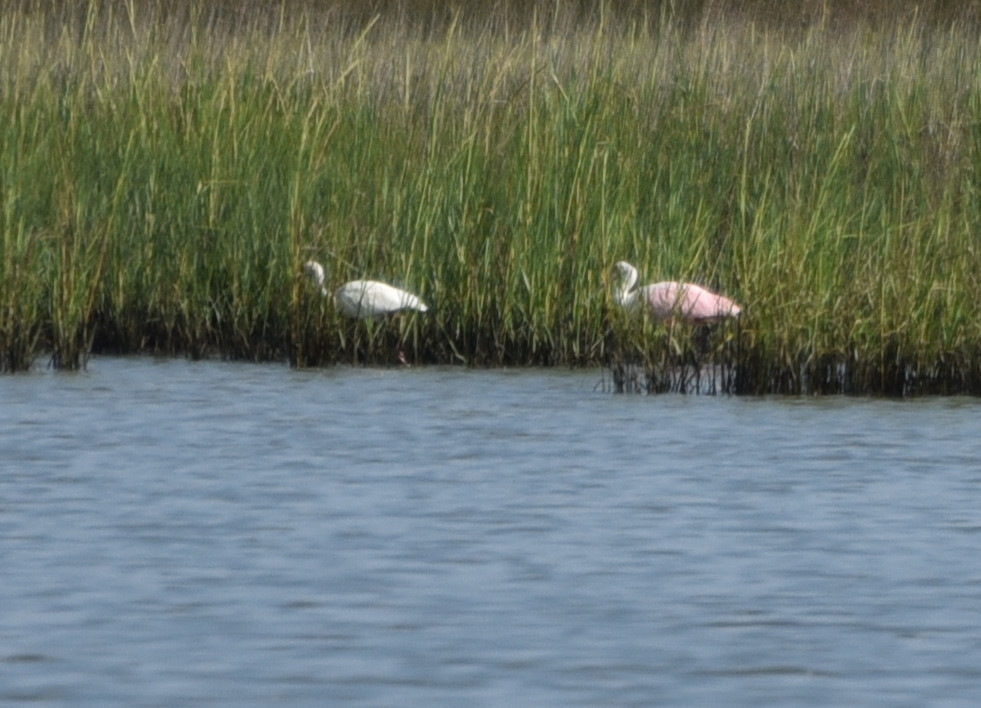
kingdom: Animalia
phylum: Chordata
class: Aves
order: Pelecaniformes
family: Threskiornithidae
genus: Platalea
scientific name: Platalea ajaja
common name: Roseate spoonbill
